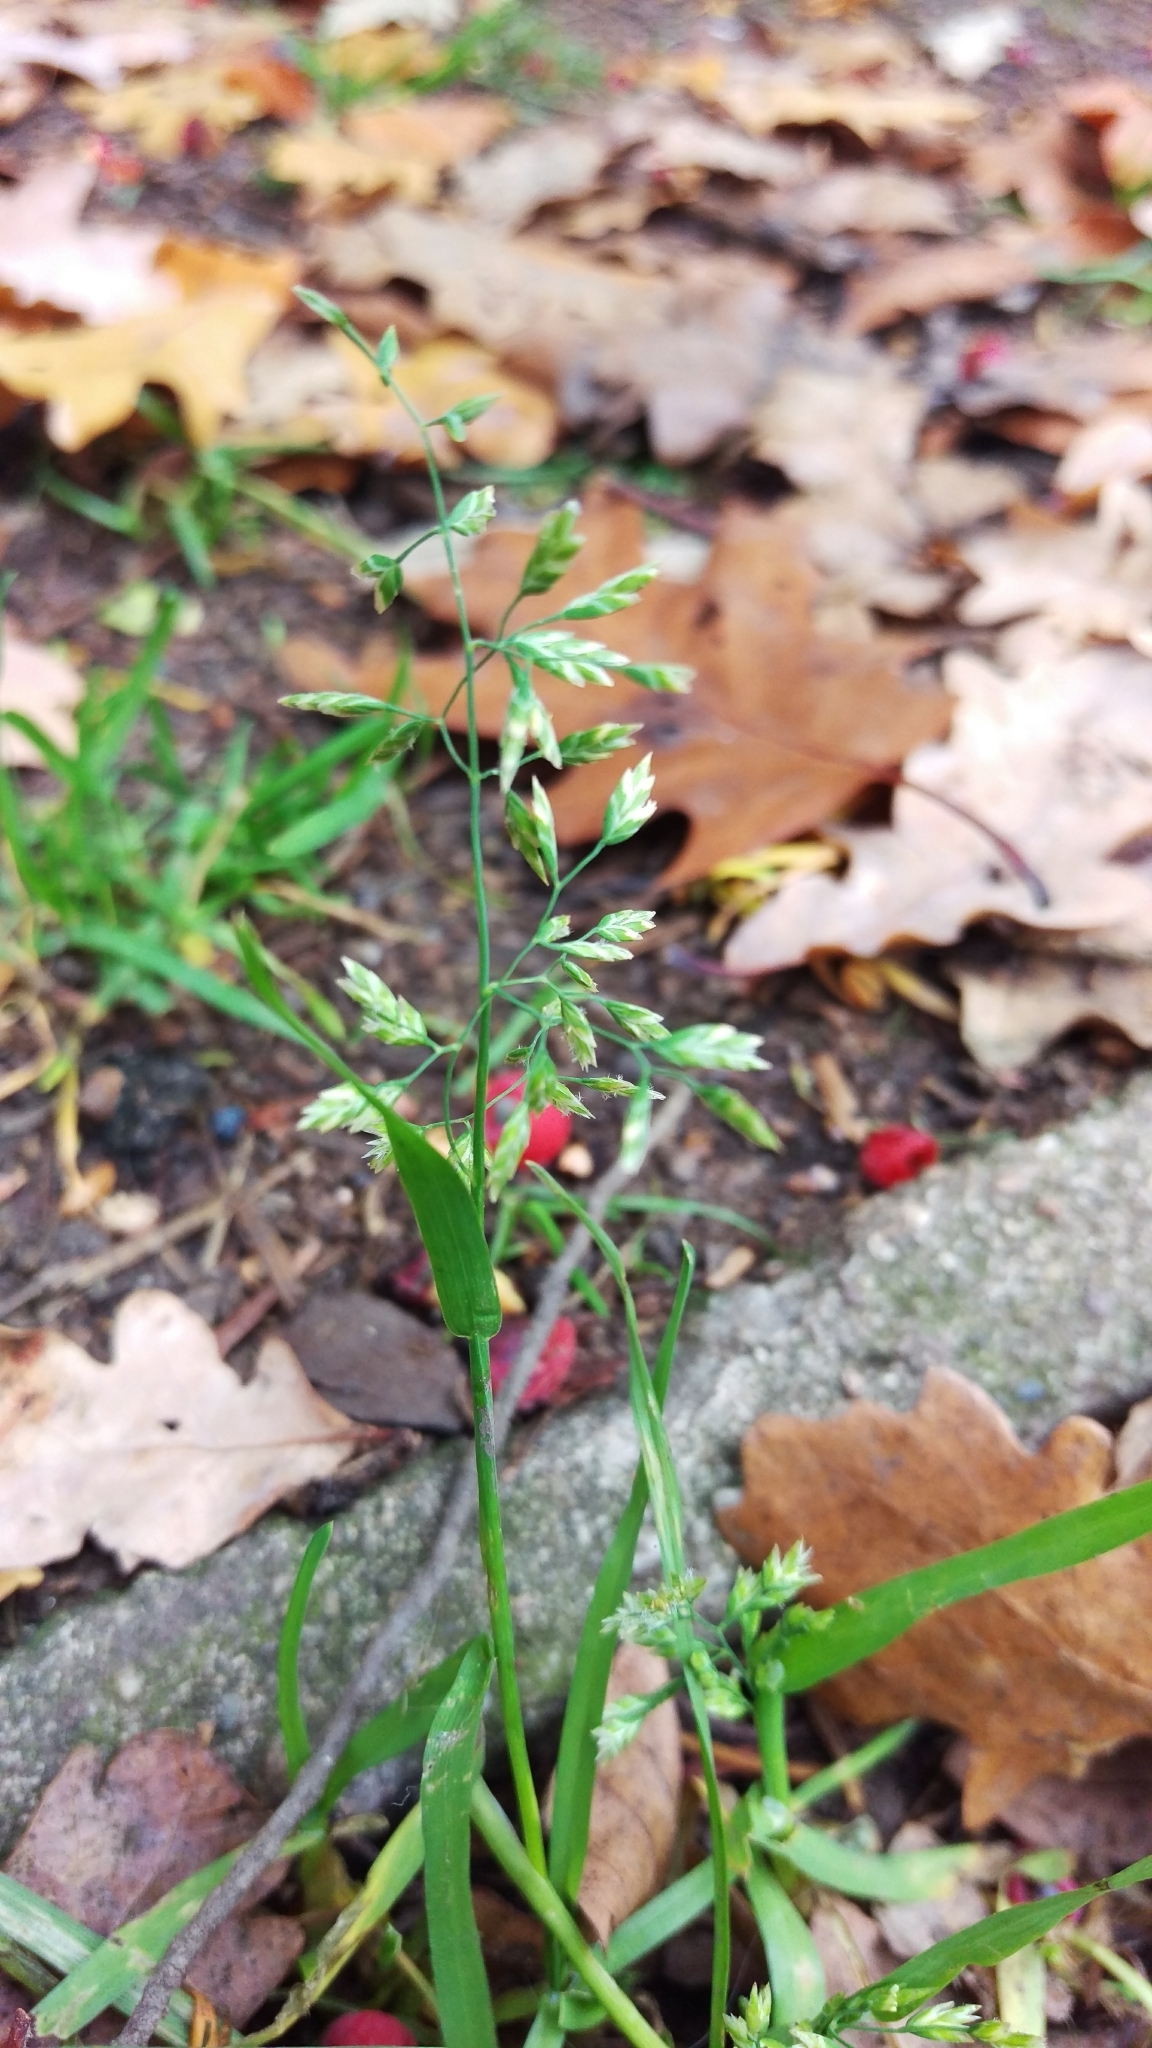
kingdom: Plantae
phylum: Tracheophyta
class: Liliopsida
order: Poales
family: Poaceae
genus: Poa
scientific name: Poa annua
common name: Annual bluegrass
